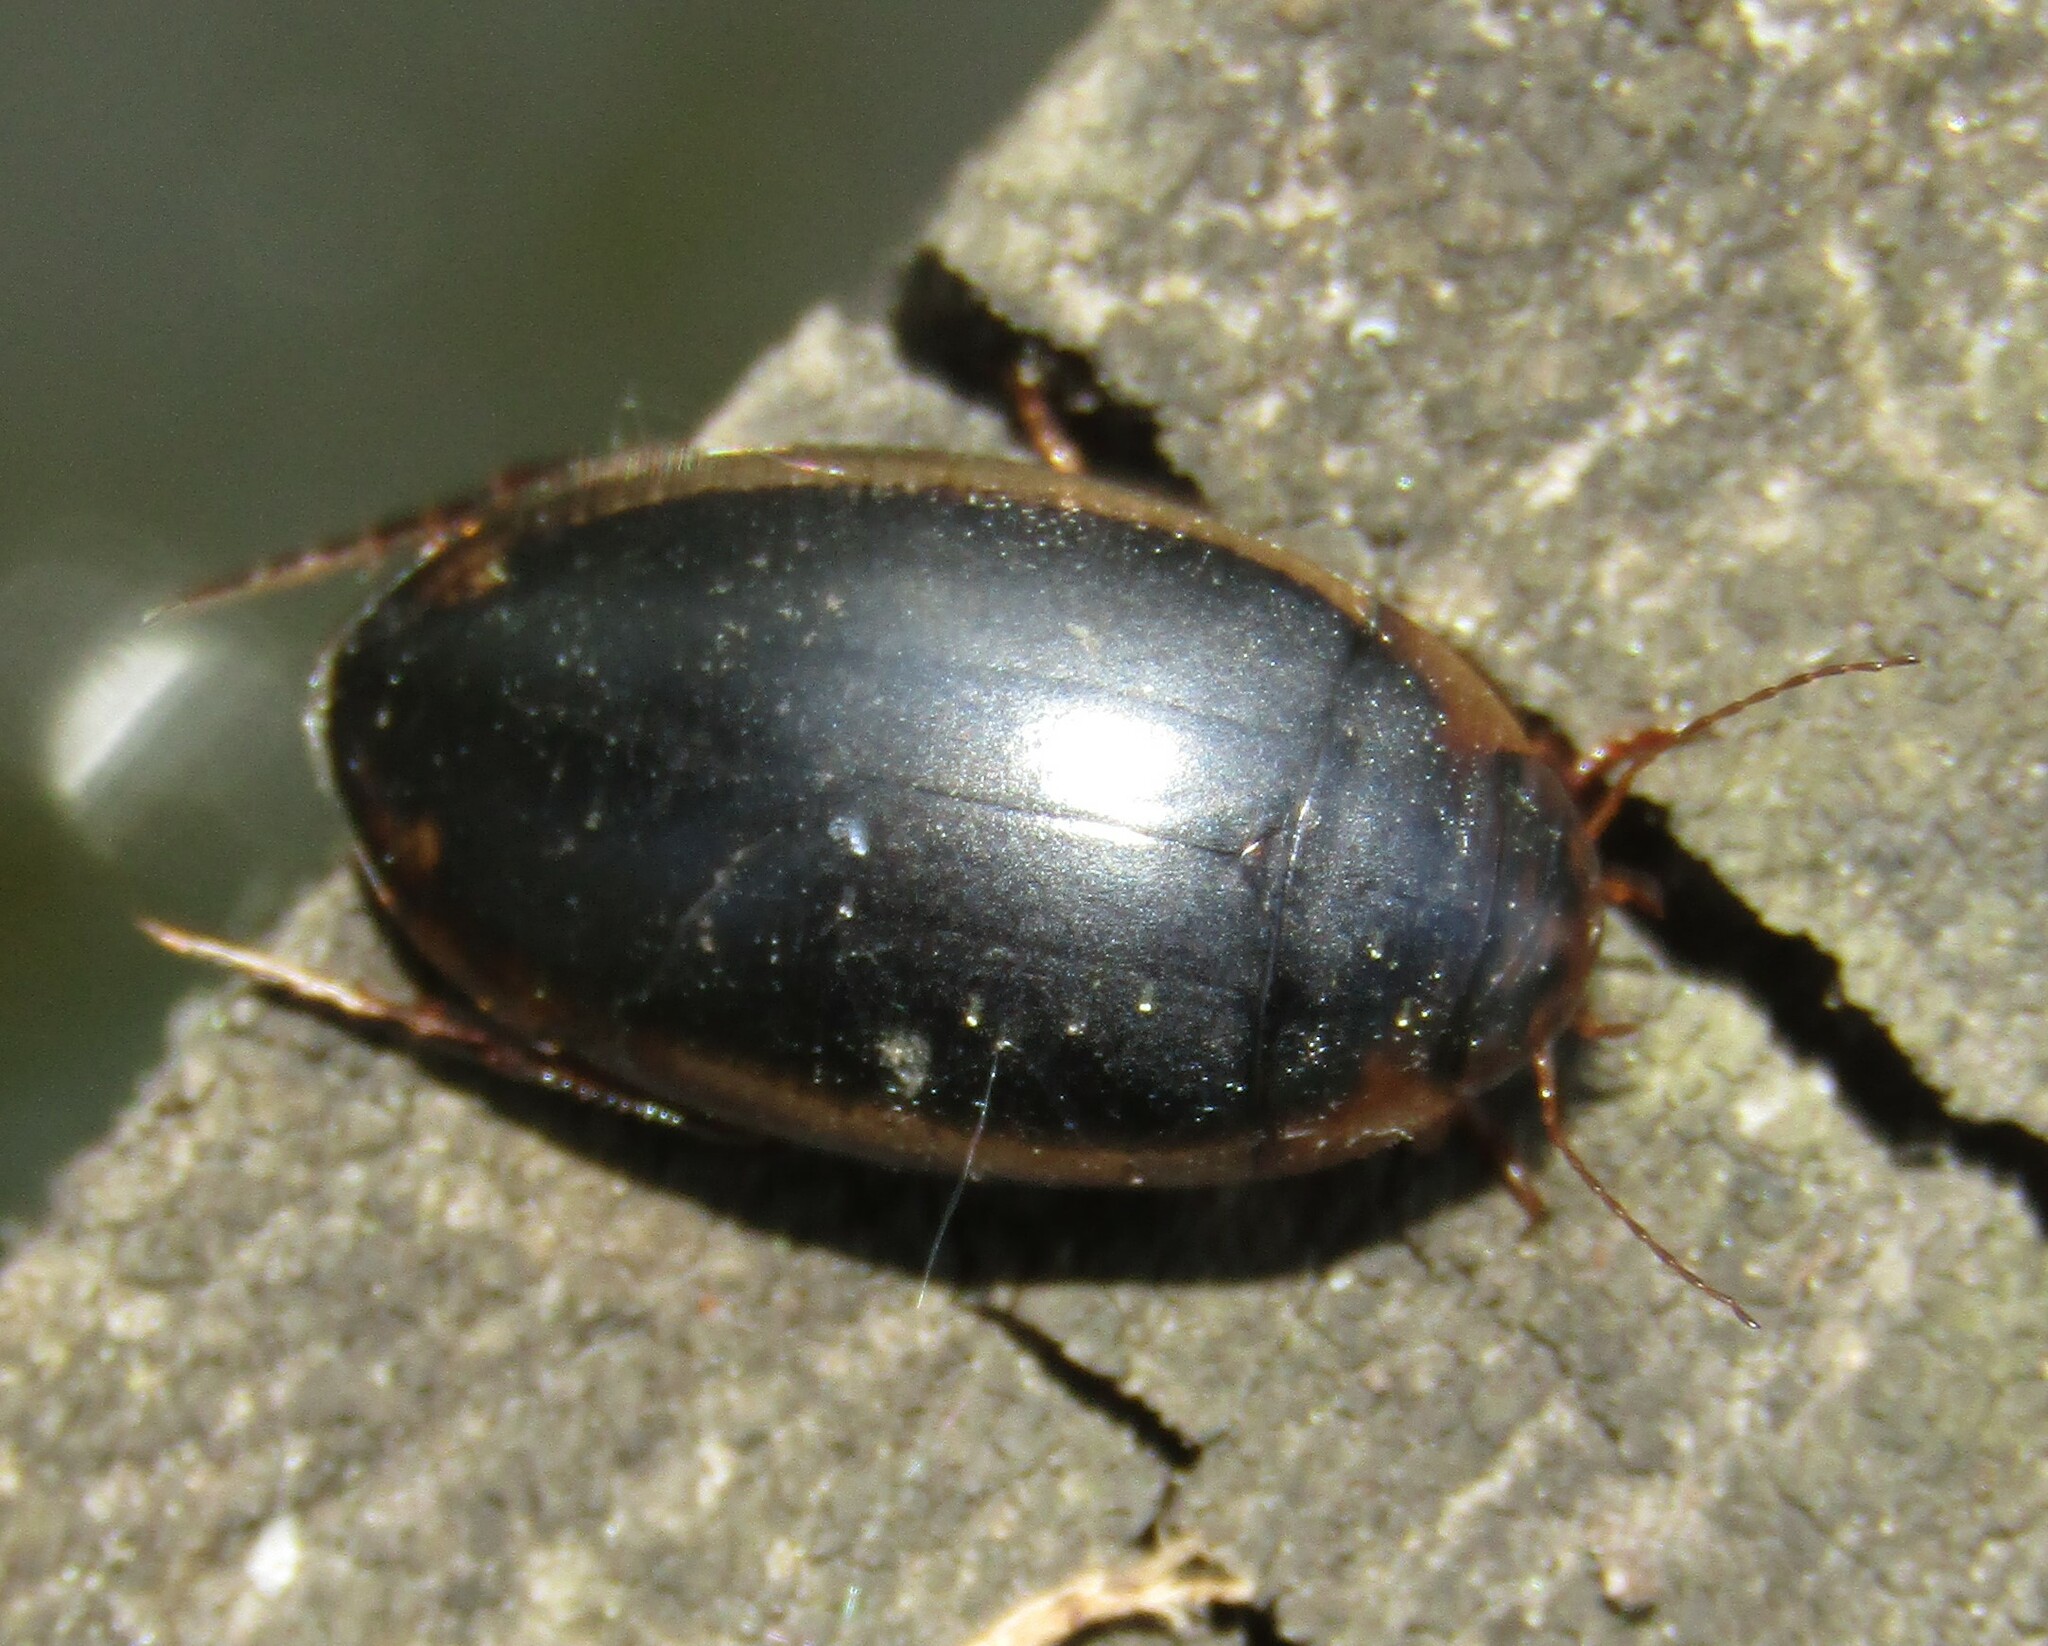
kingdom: Animalia
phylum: Arthropoda
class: Insecta
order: Coleoptera
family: Dytiscidae
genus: Hydaticus
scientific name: Hydaticus seminiger
